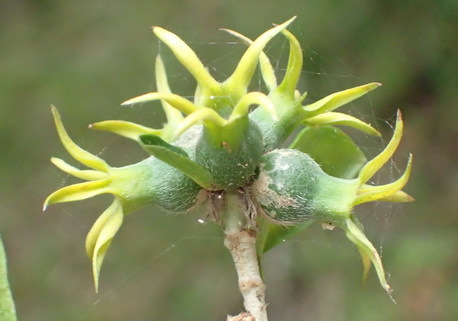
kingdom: Plantae
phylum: Tracheophyta
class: Magnoliopsida
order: Gentianales
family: Rubiaceae
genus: Burchellia
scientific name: Burchellia bubalina
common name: Wild pomegranate
